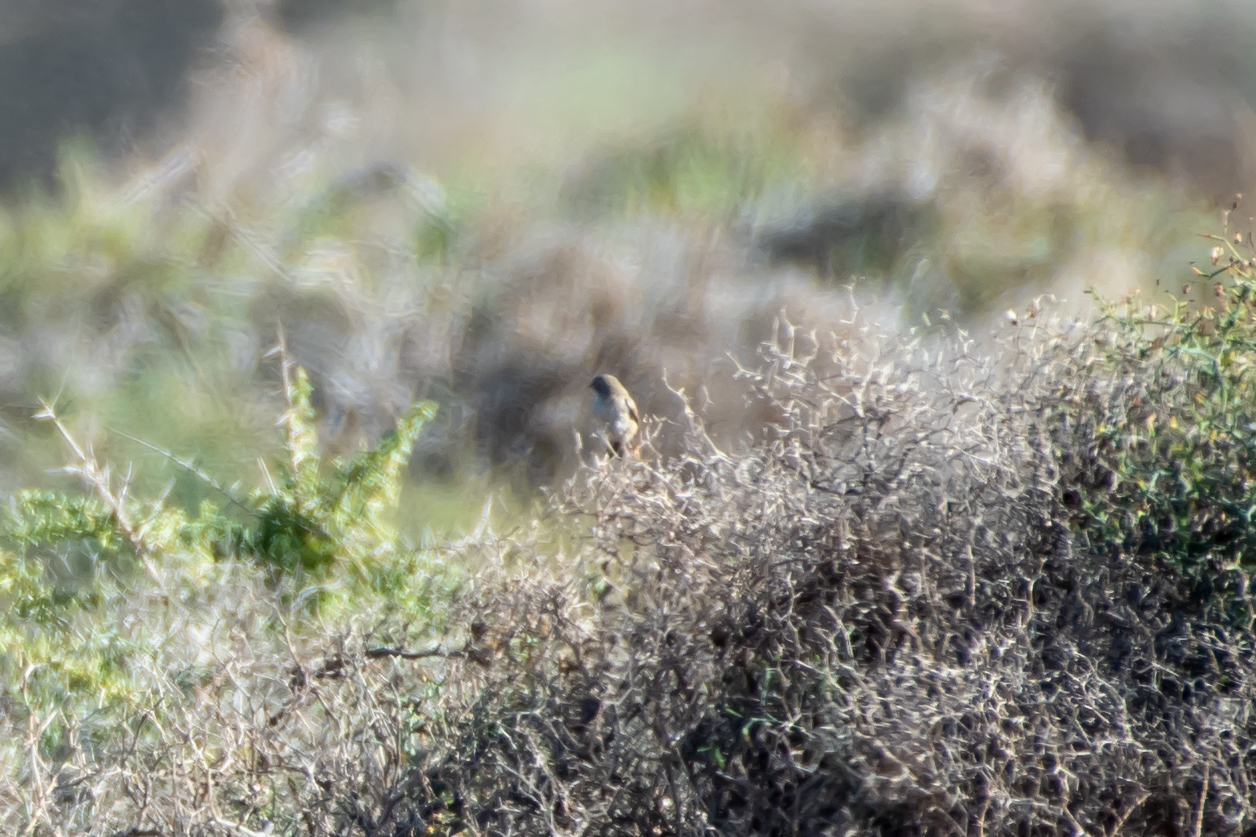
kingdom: Animalia
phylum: Chordata
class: Aves
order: Passeriformes
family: Sylviidae
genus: Sylvia
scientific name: Sylvia conspicillata
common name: Spectacled warbler
